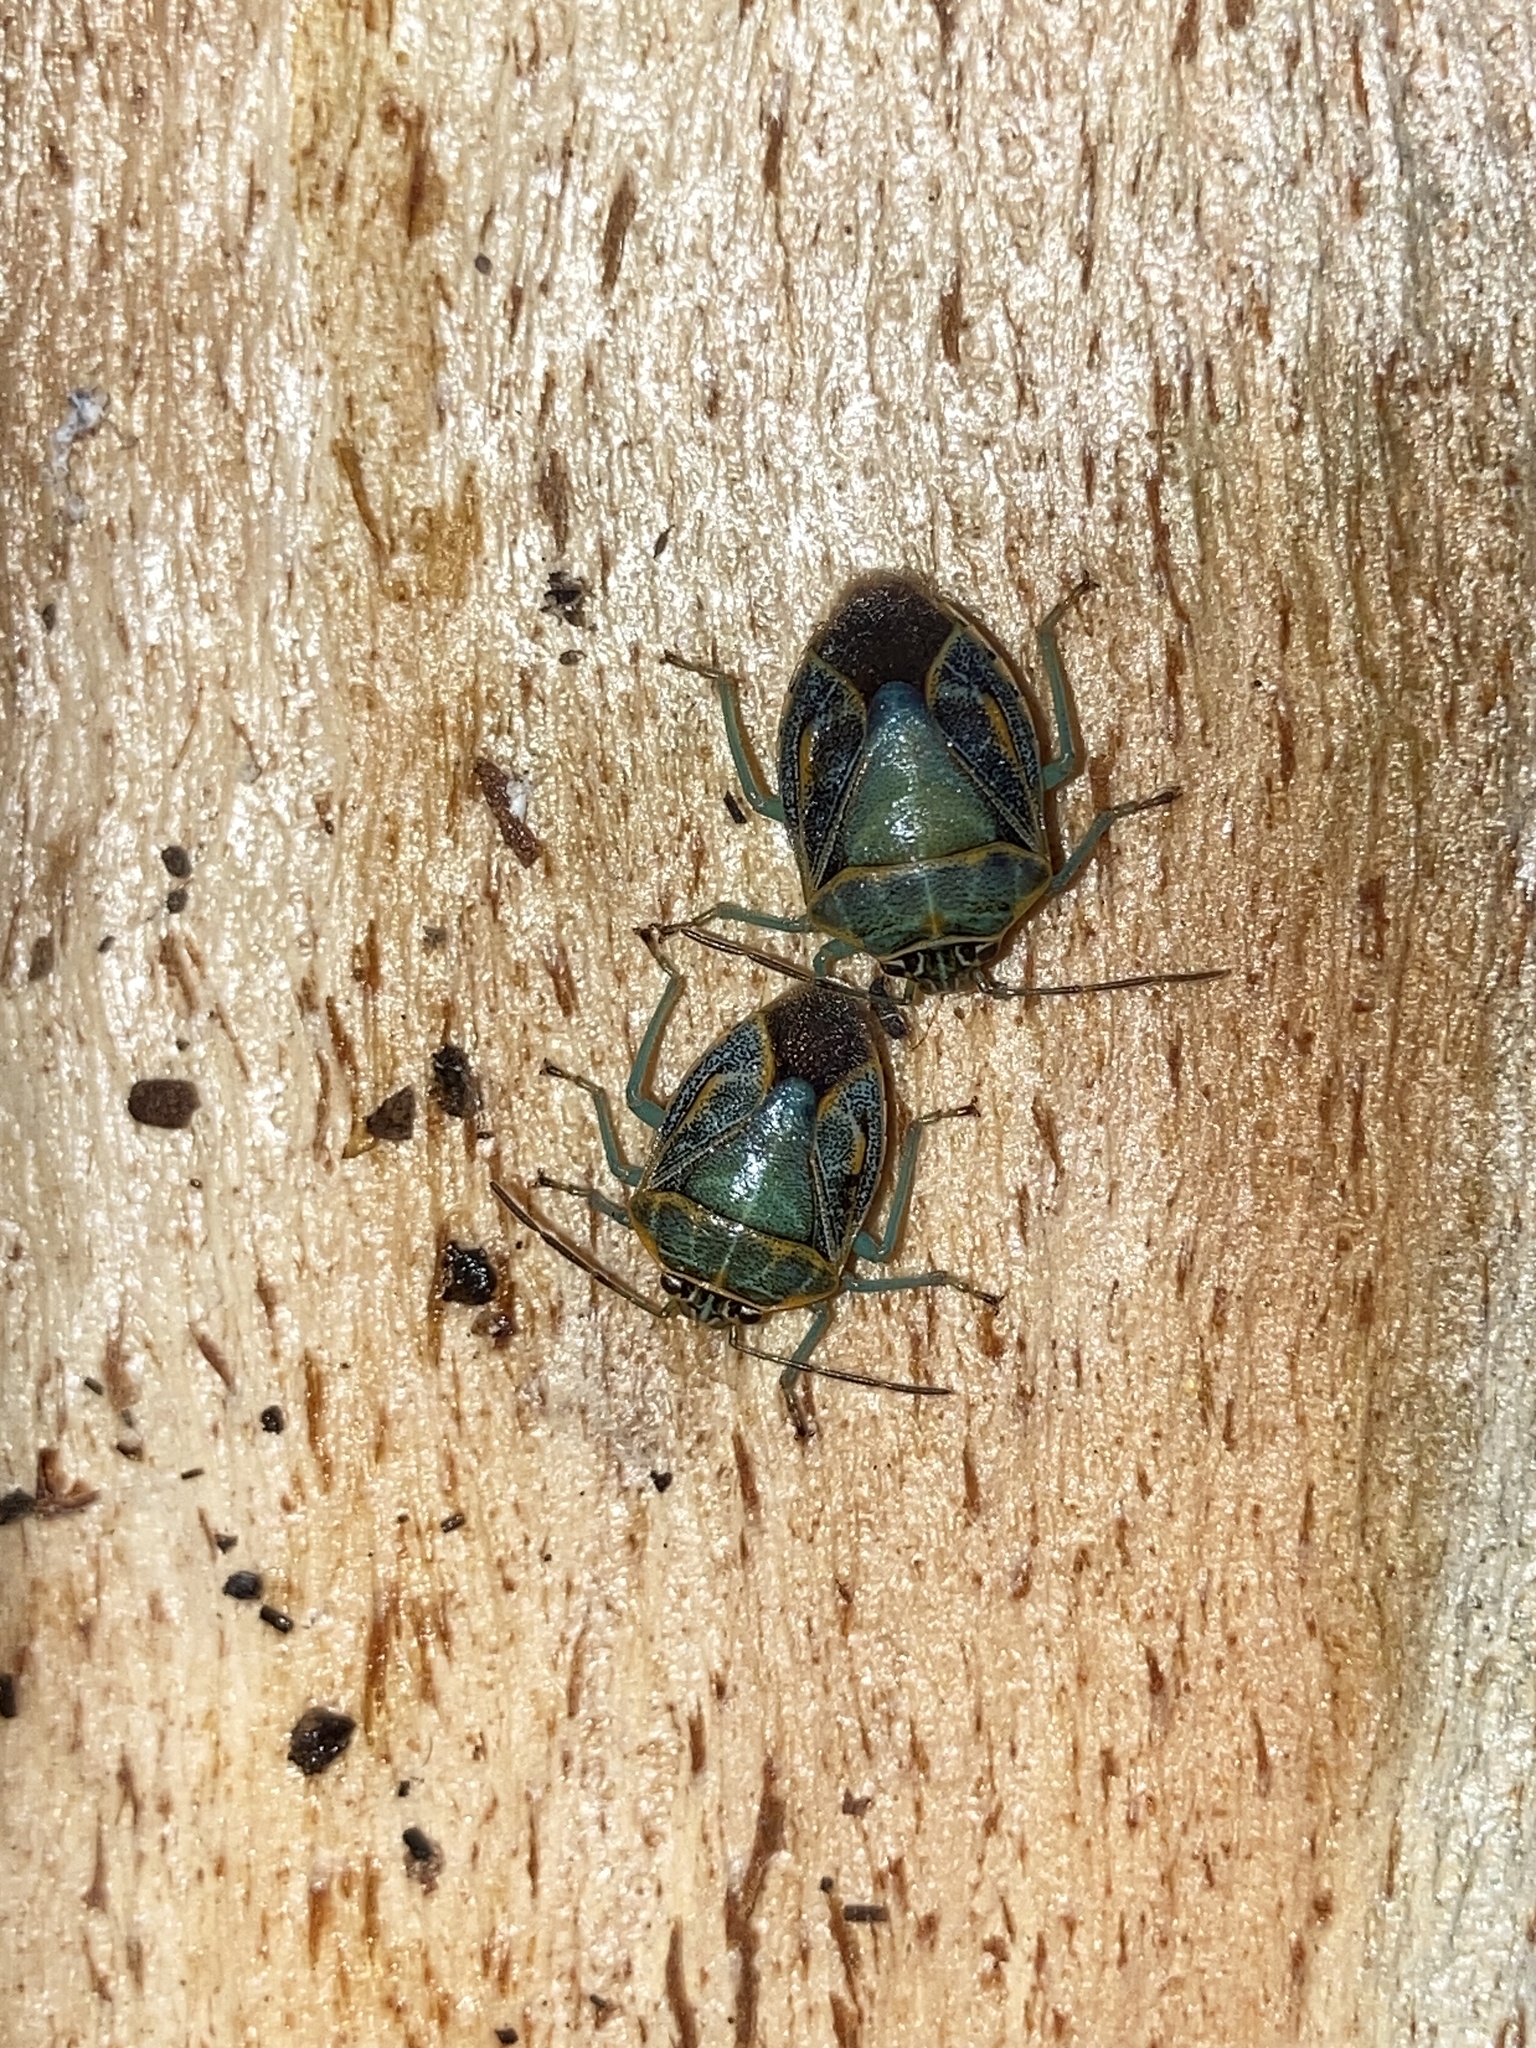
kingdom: Animalia
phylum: Arthropoda
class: Insecta
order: Hemiptera
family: Pentatomidae
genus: Antestiopsis
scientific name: Antestiopsis
